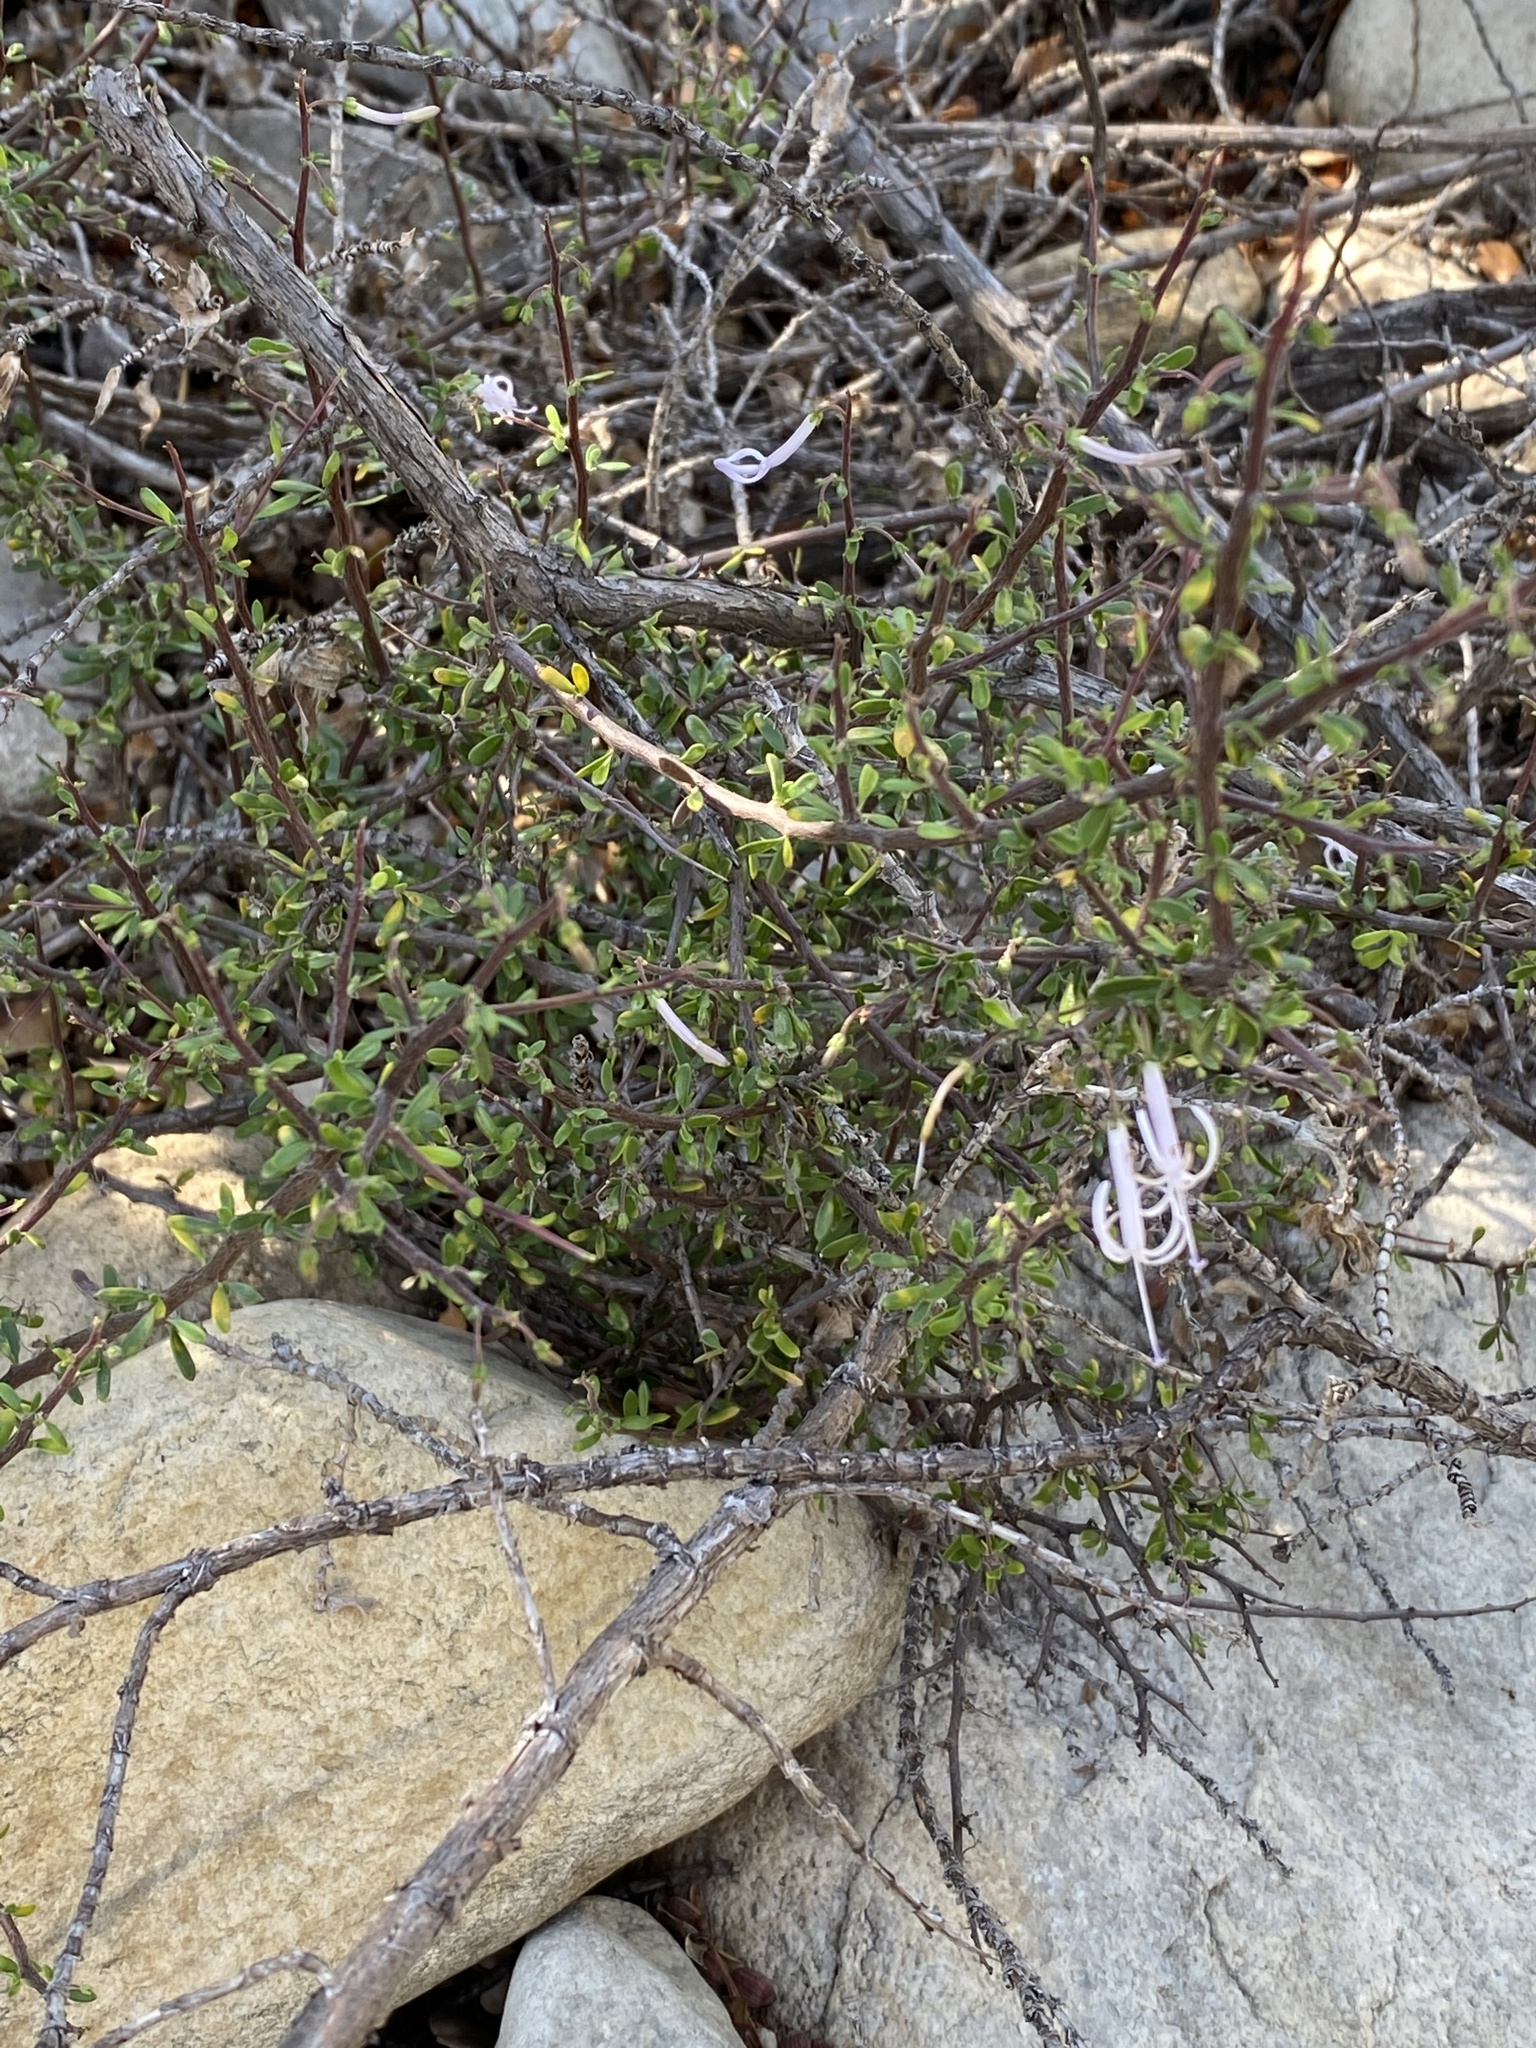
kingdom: Plantae
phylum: Tracheophyta
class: Magnoliopsida
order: Asterales
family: Campanulaceae
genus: Theilera
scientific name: Theilera robusta
